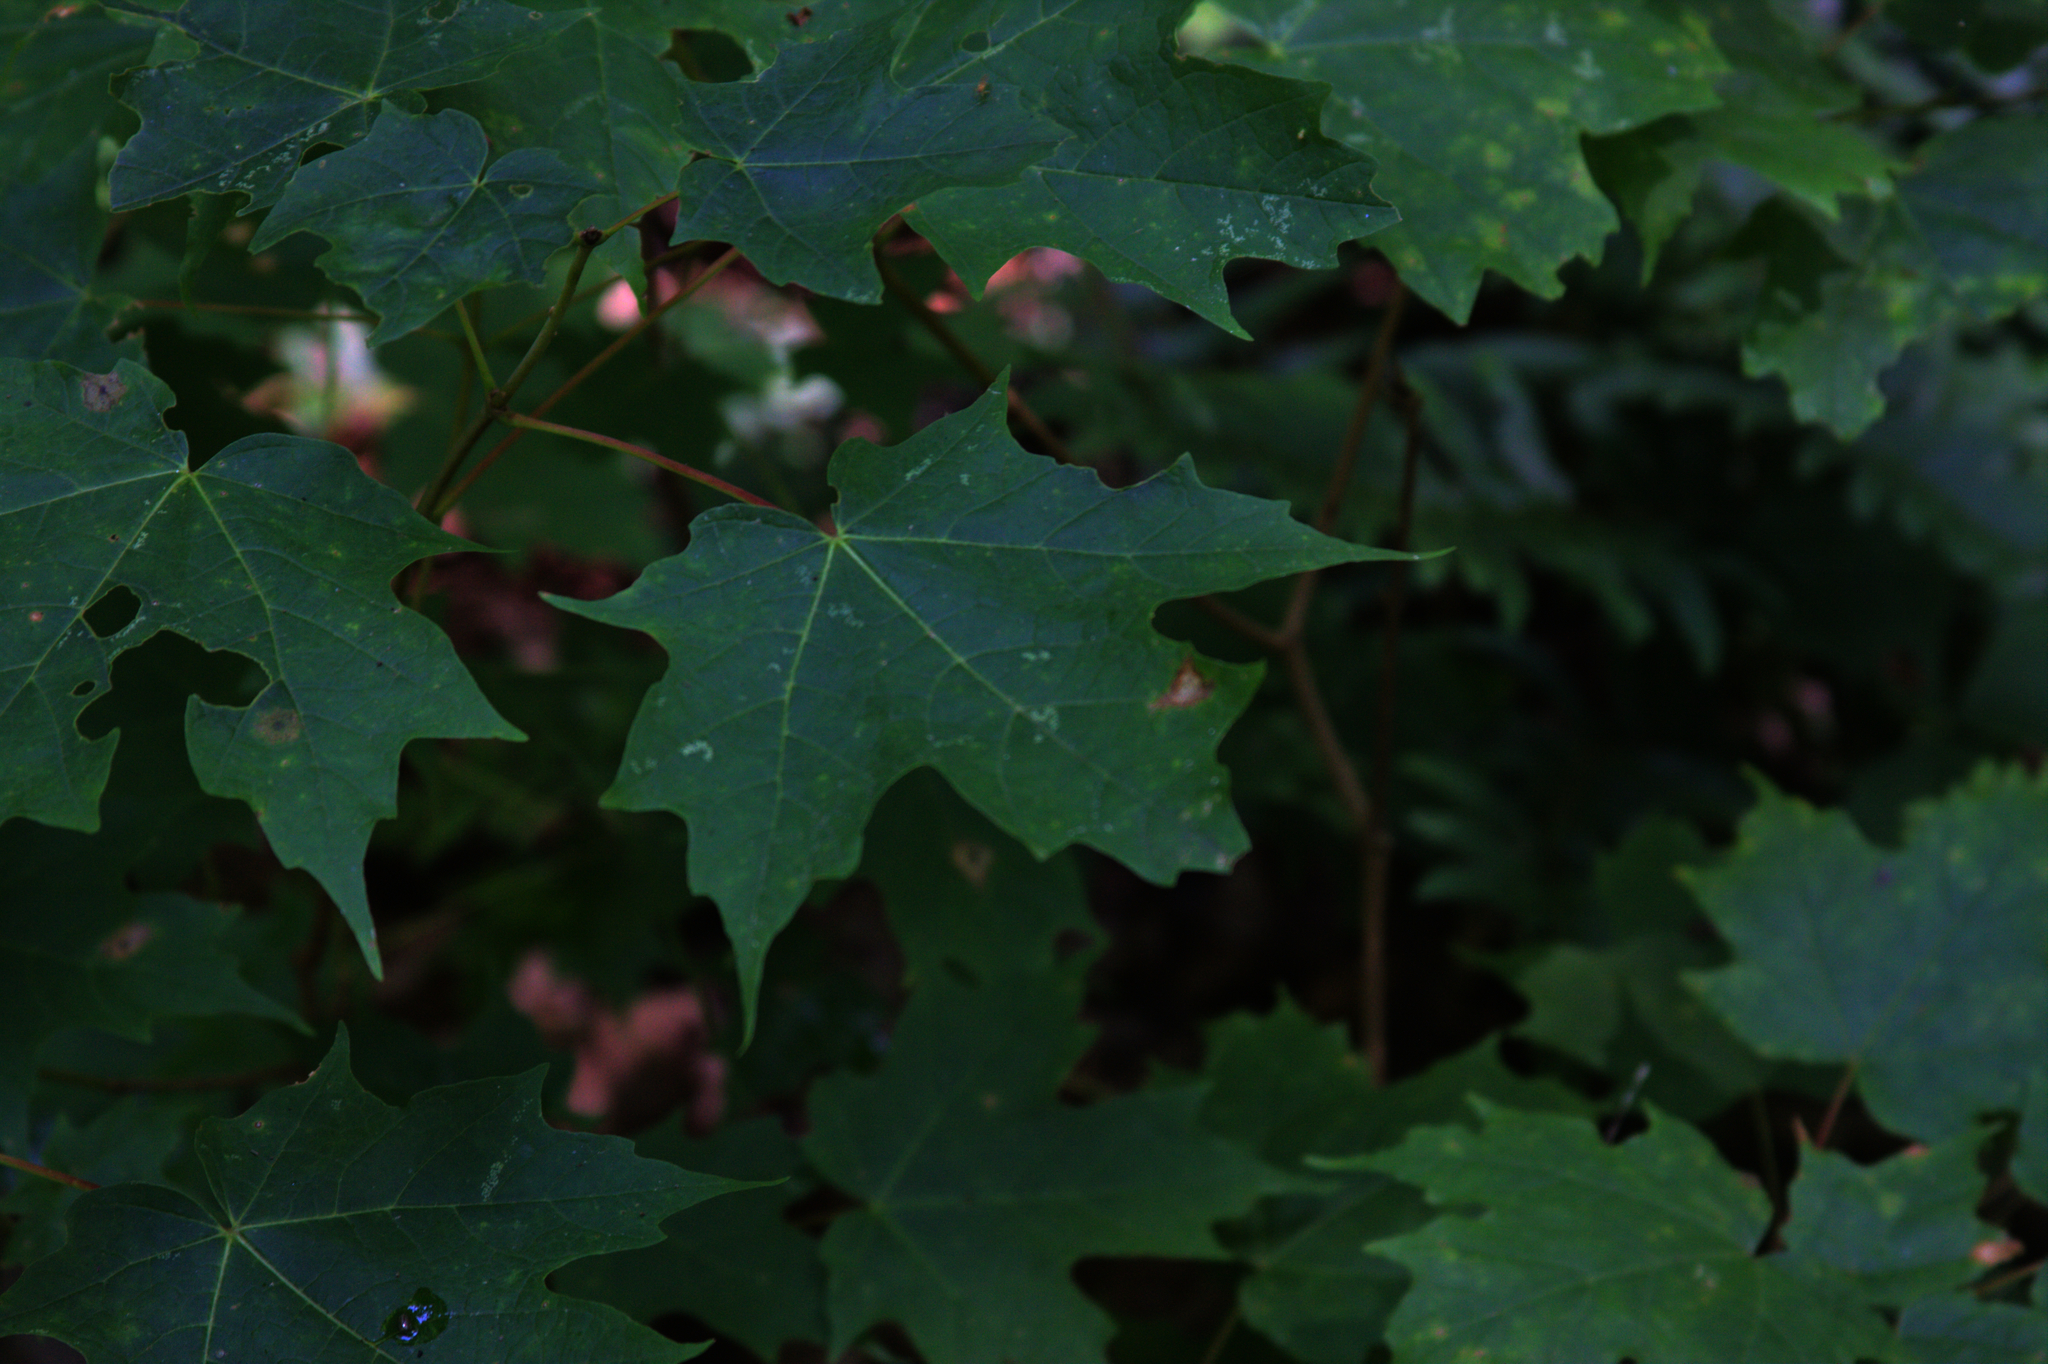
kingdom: Plantae
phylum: Tracheophyta
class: Magnoliopsida
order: Sapindales
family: Sapindaceae
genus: Acer
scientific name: Acer saccharum
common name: Sugar maple
